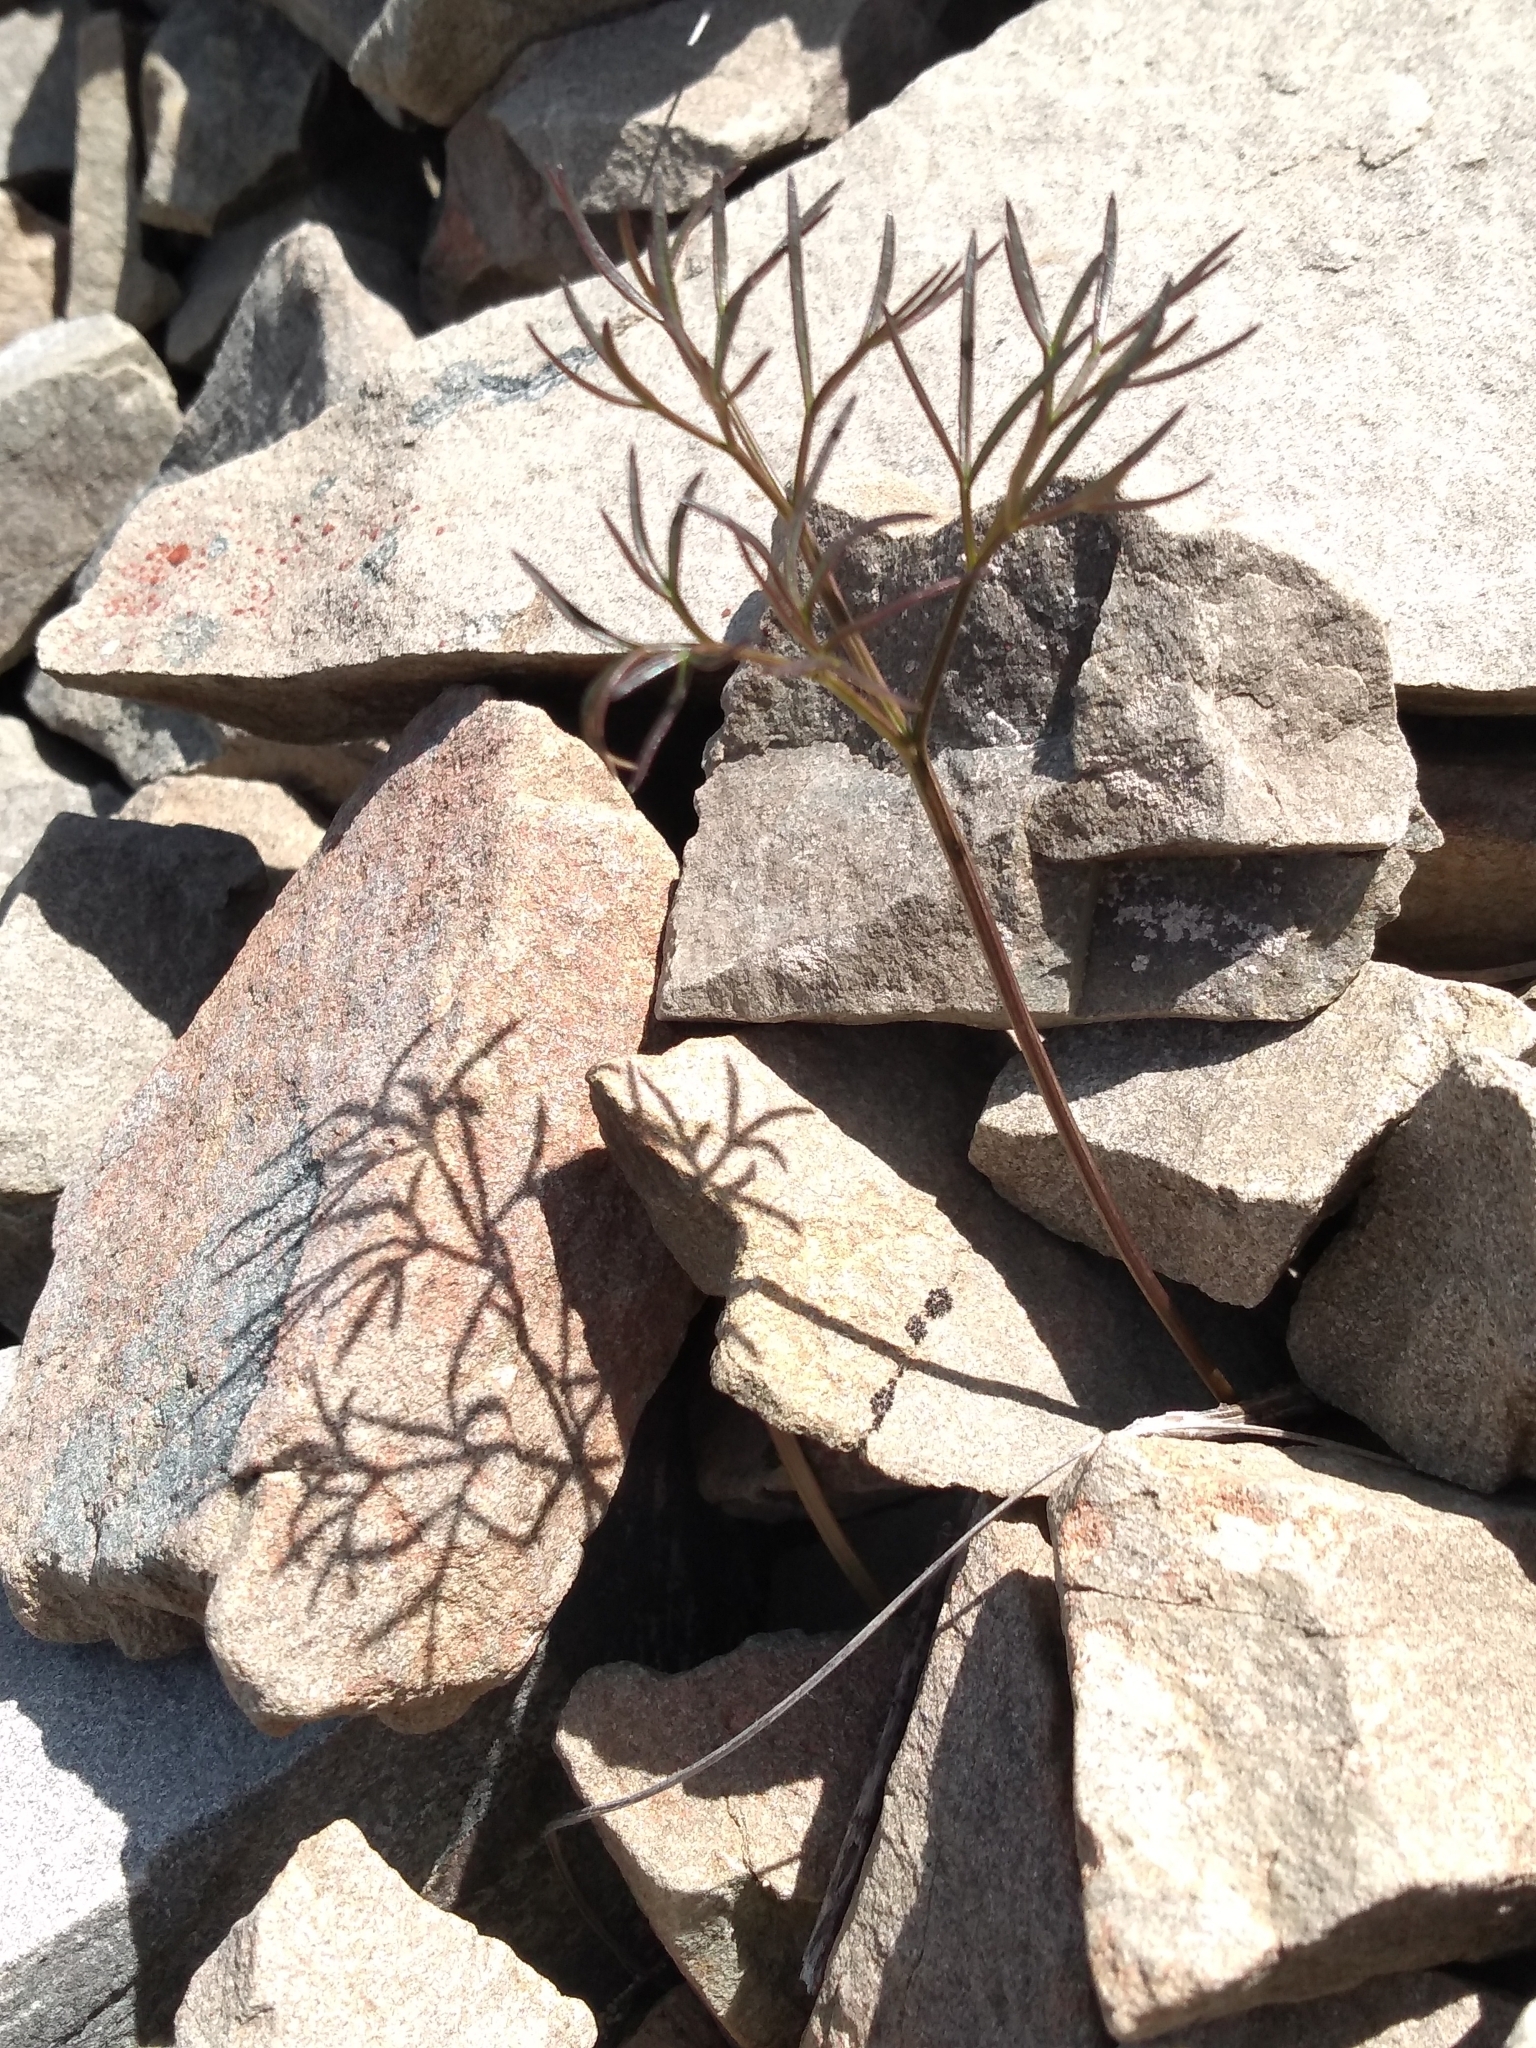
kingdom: Plantae
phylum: Tracheophyta
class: Magnoliopsida
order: Apiales
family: Apiaceae
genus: Anisotome
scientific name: Anisotome filifolia
